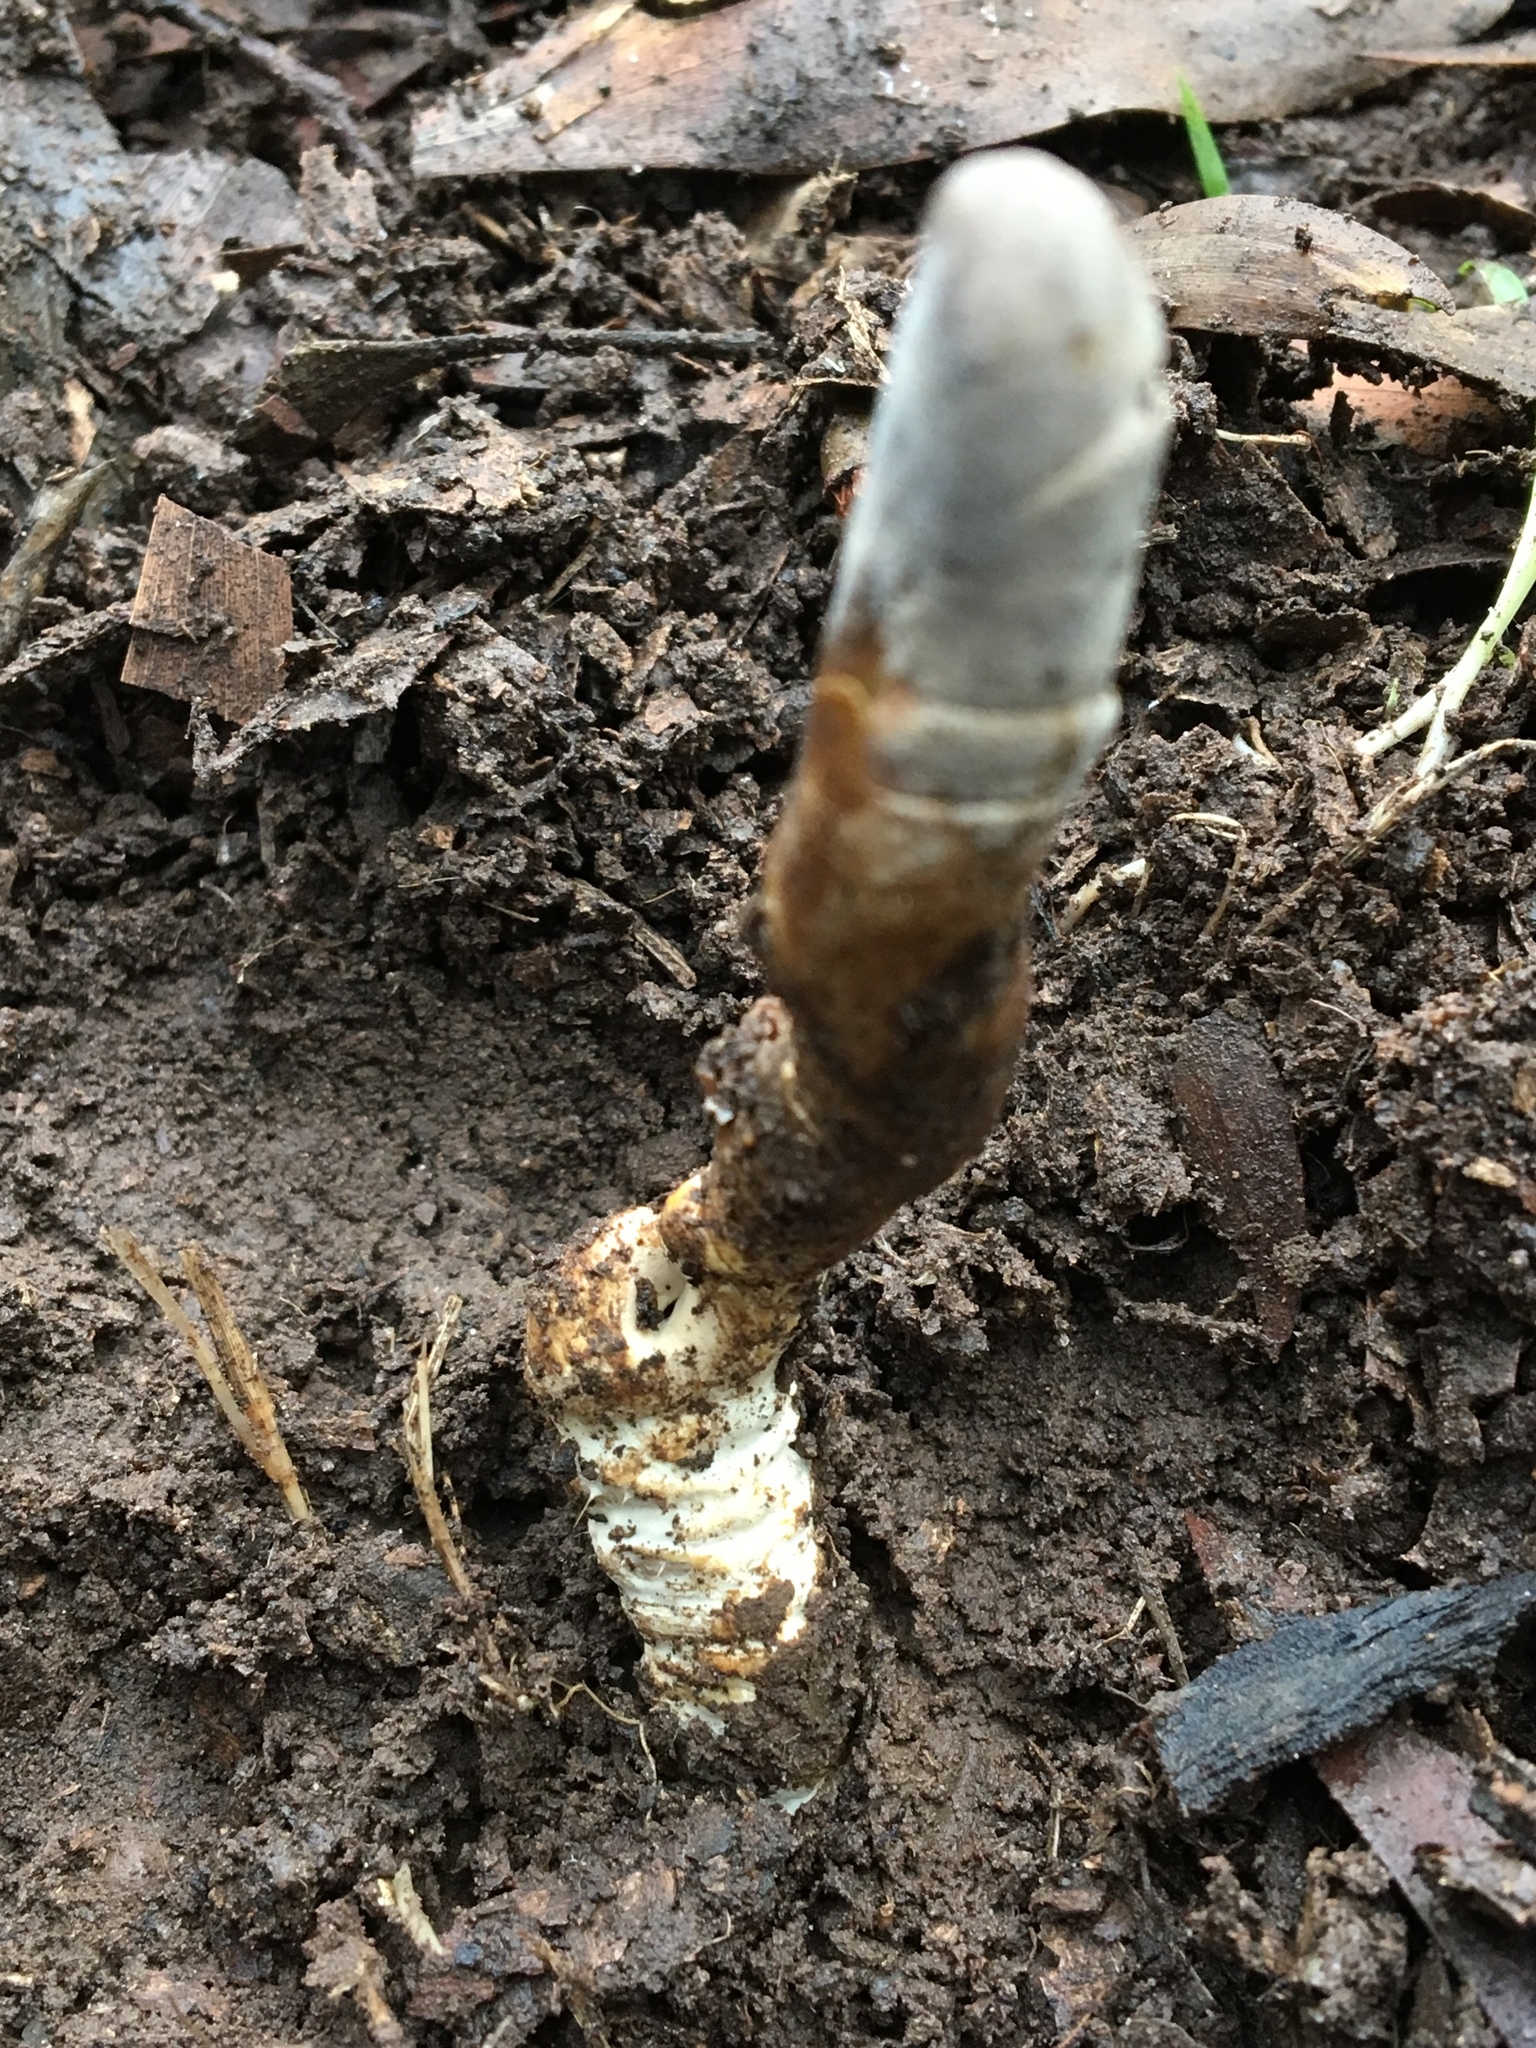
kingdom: Fungi
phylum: Ascomycota
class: Sordariomycetes
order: Hypocreales
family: Cordycipitaceae
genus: Cordyceps
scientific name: Cordyceps
